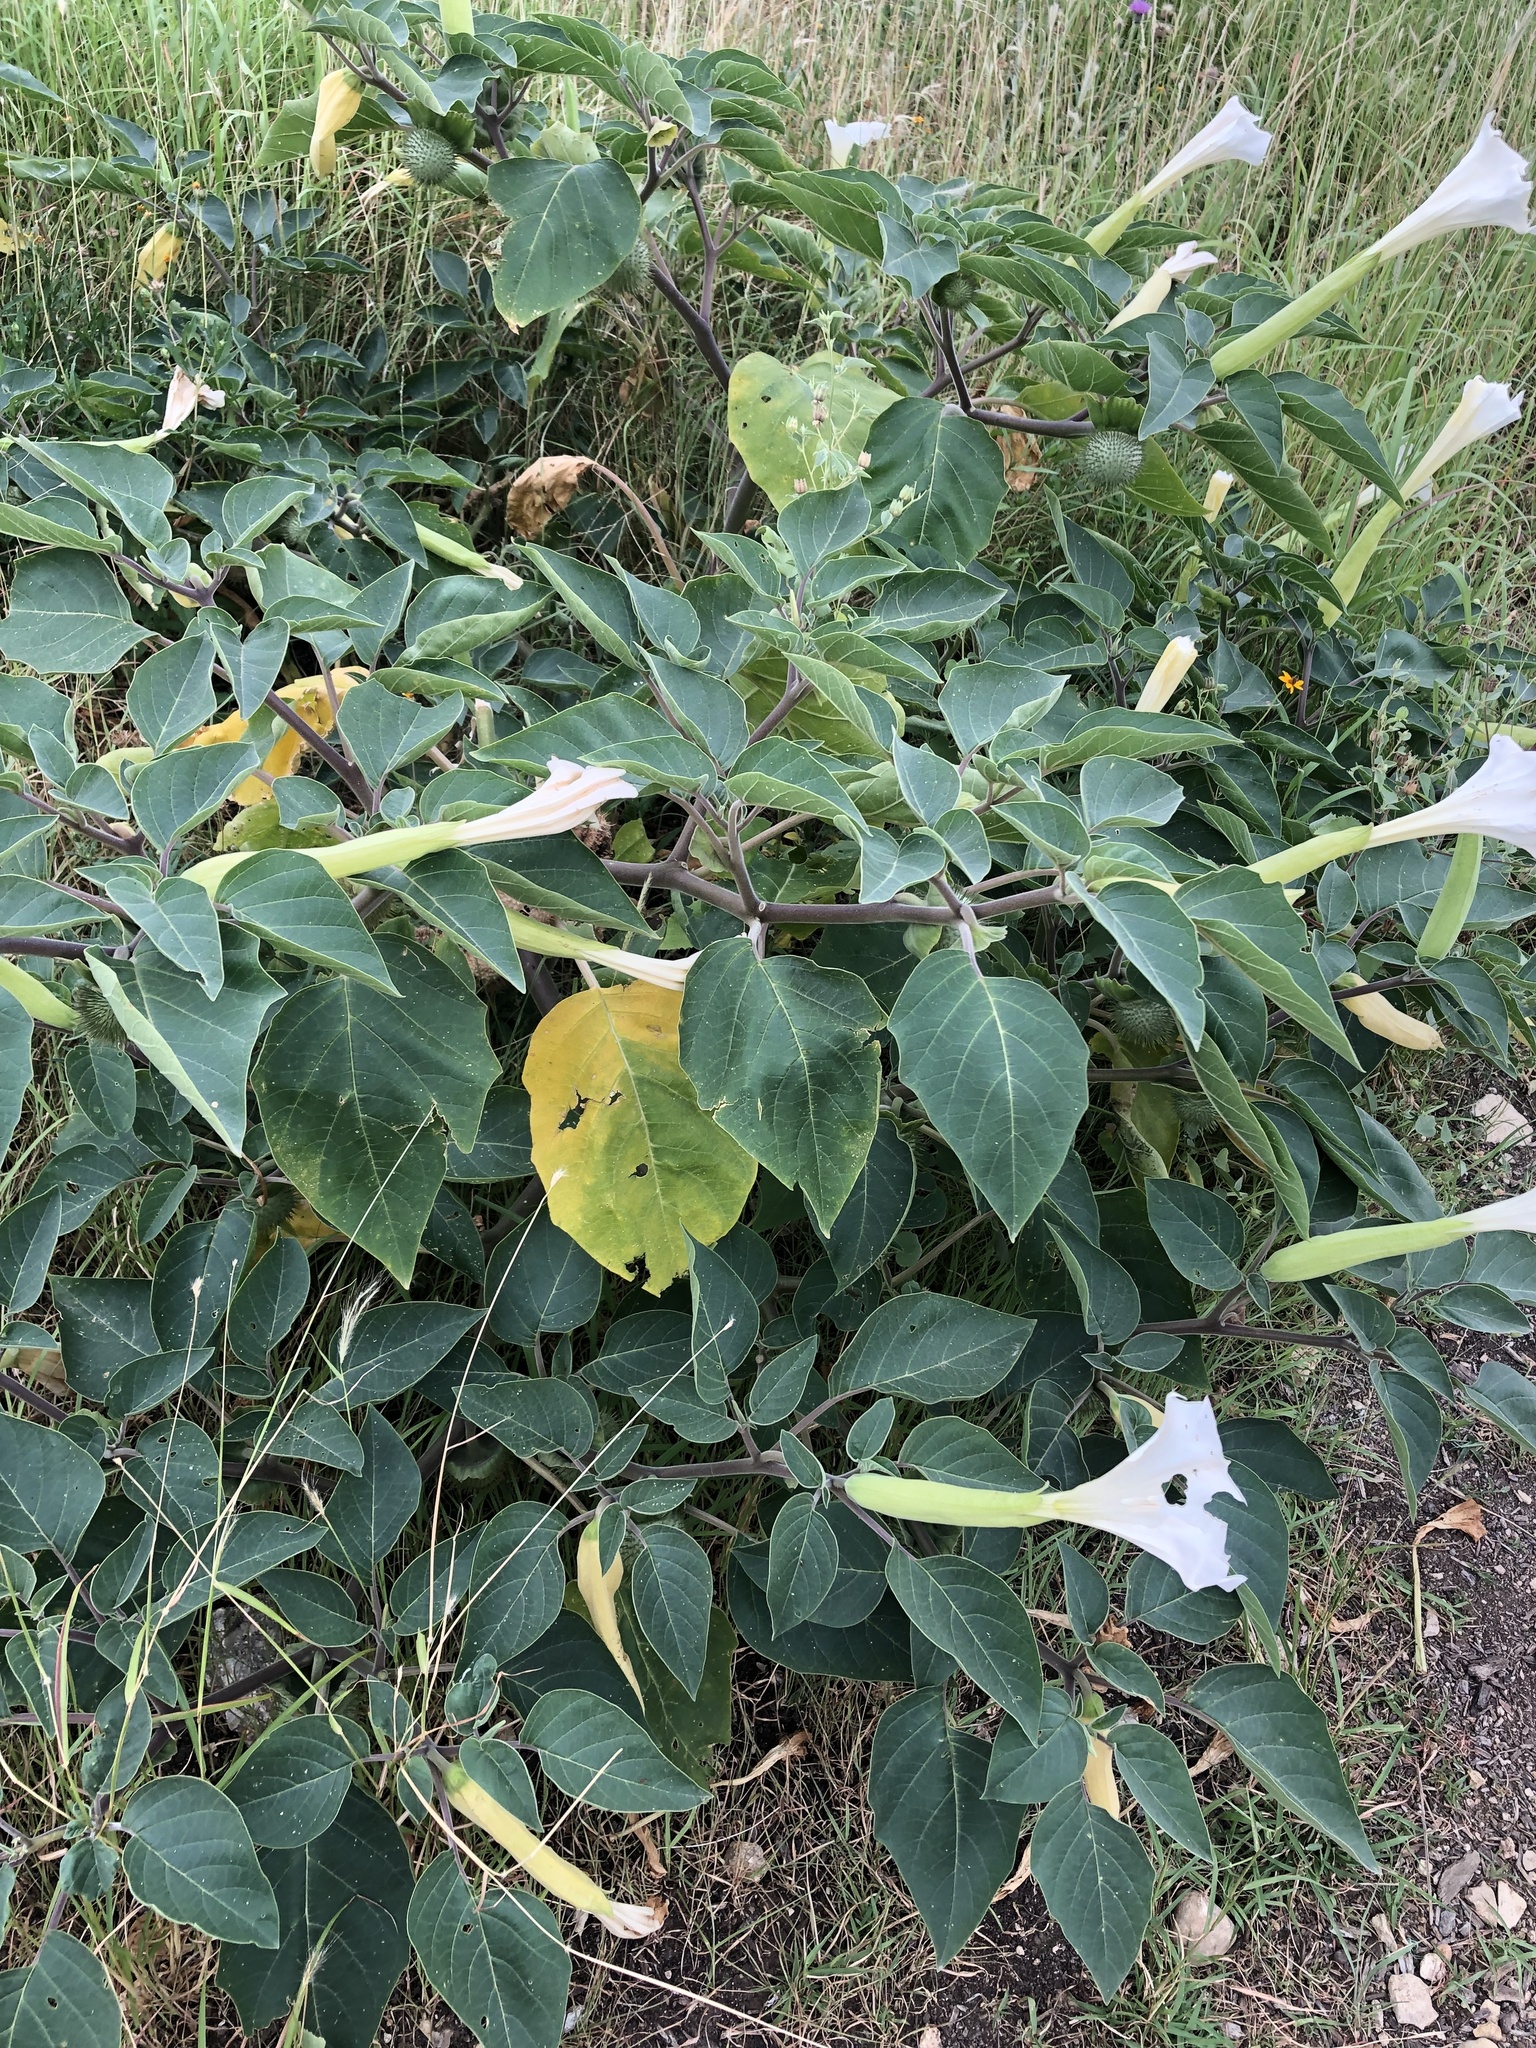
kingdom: Plantae
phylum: Tracheophyta
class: Magnoliopsida
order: Solanales
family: Solanaceae
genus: Datura
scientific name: Datura wrightii
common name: Sacred thorn-apple
